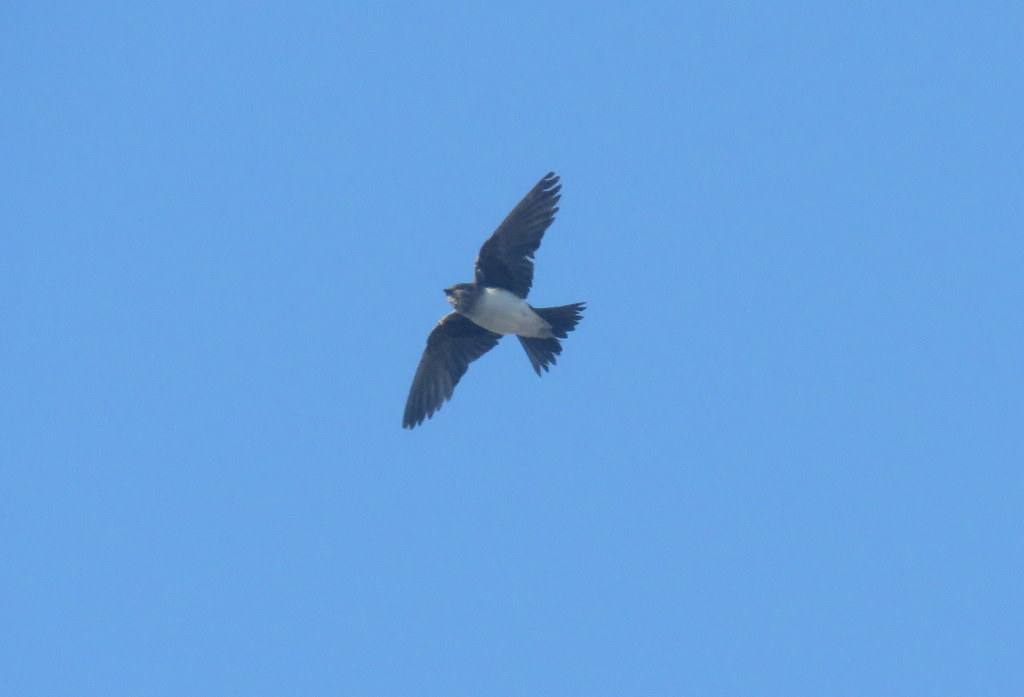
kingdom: Animalia
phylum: Chordata
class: Aves
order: Passeriformes
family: Hirundinidae
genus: Progne
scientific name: Progne chalybea
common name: Grey-breasted martin
